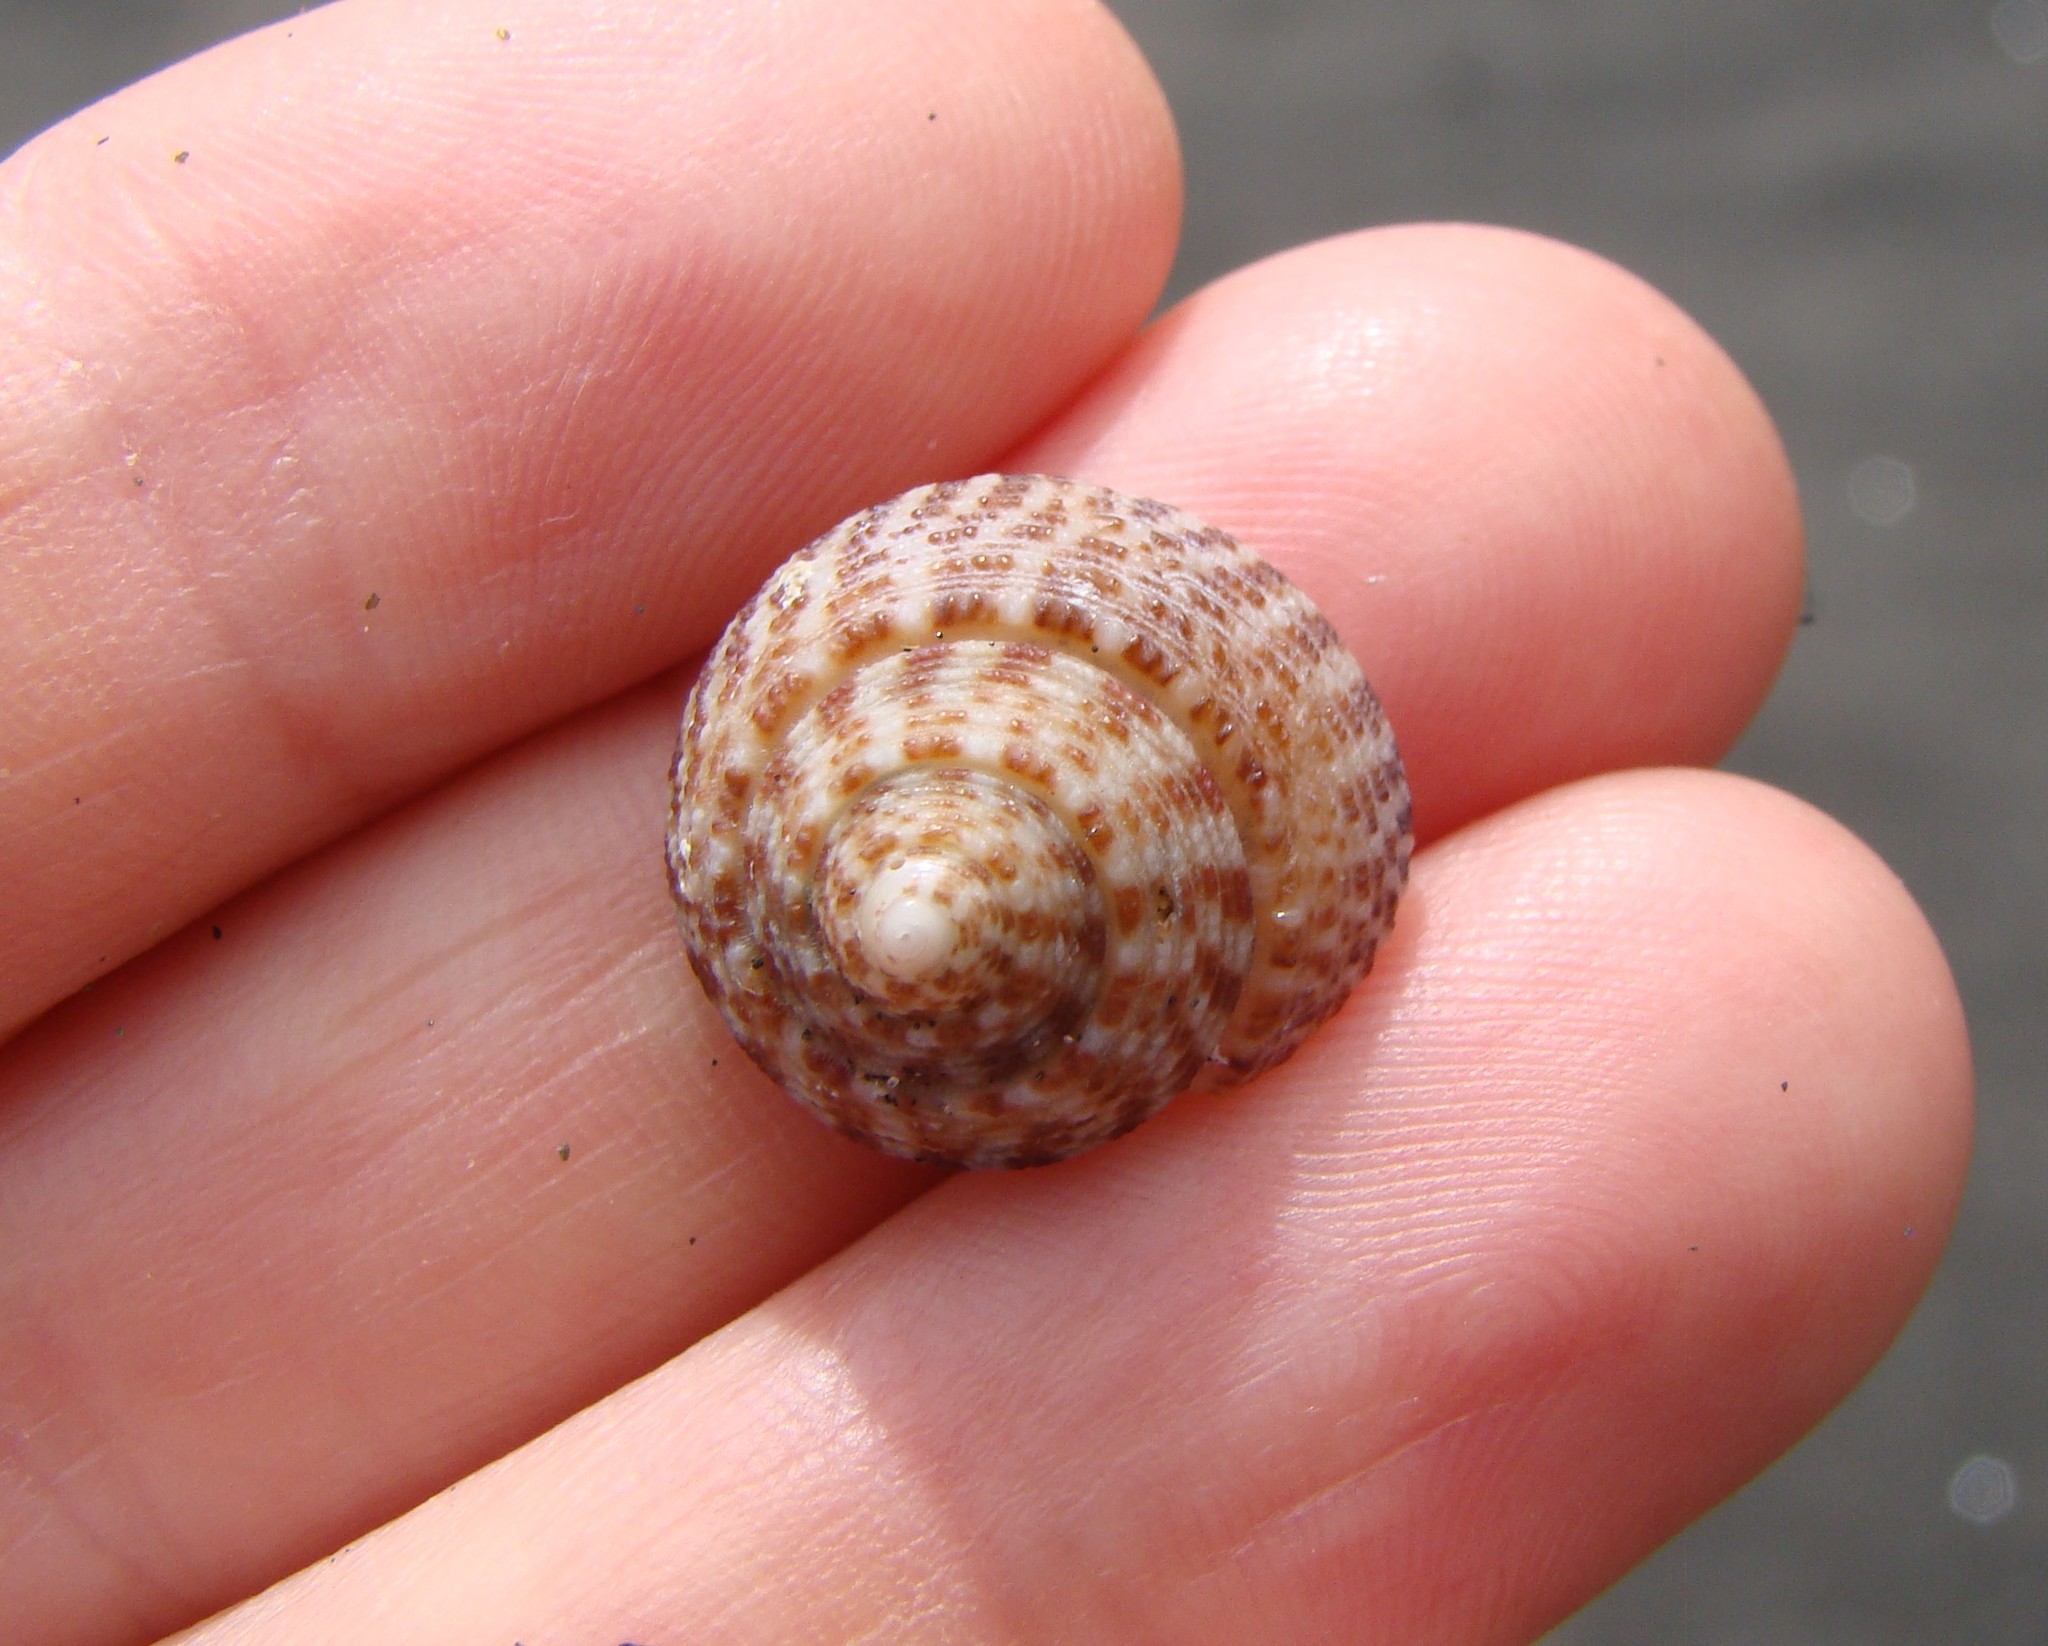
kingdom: Animalia
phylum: Mollusca
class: Gastropoda
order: Trochida
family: Trochidae
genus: Coelotrochus
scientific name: Coelotrochus tiaratus
